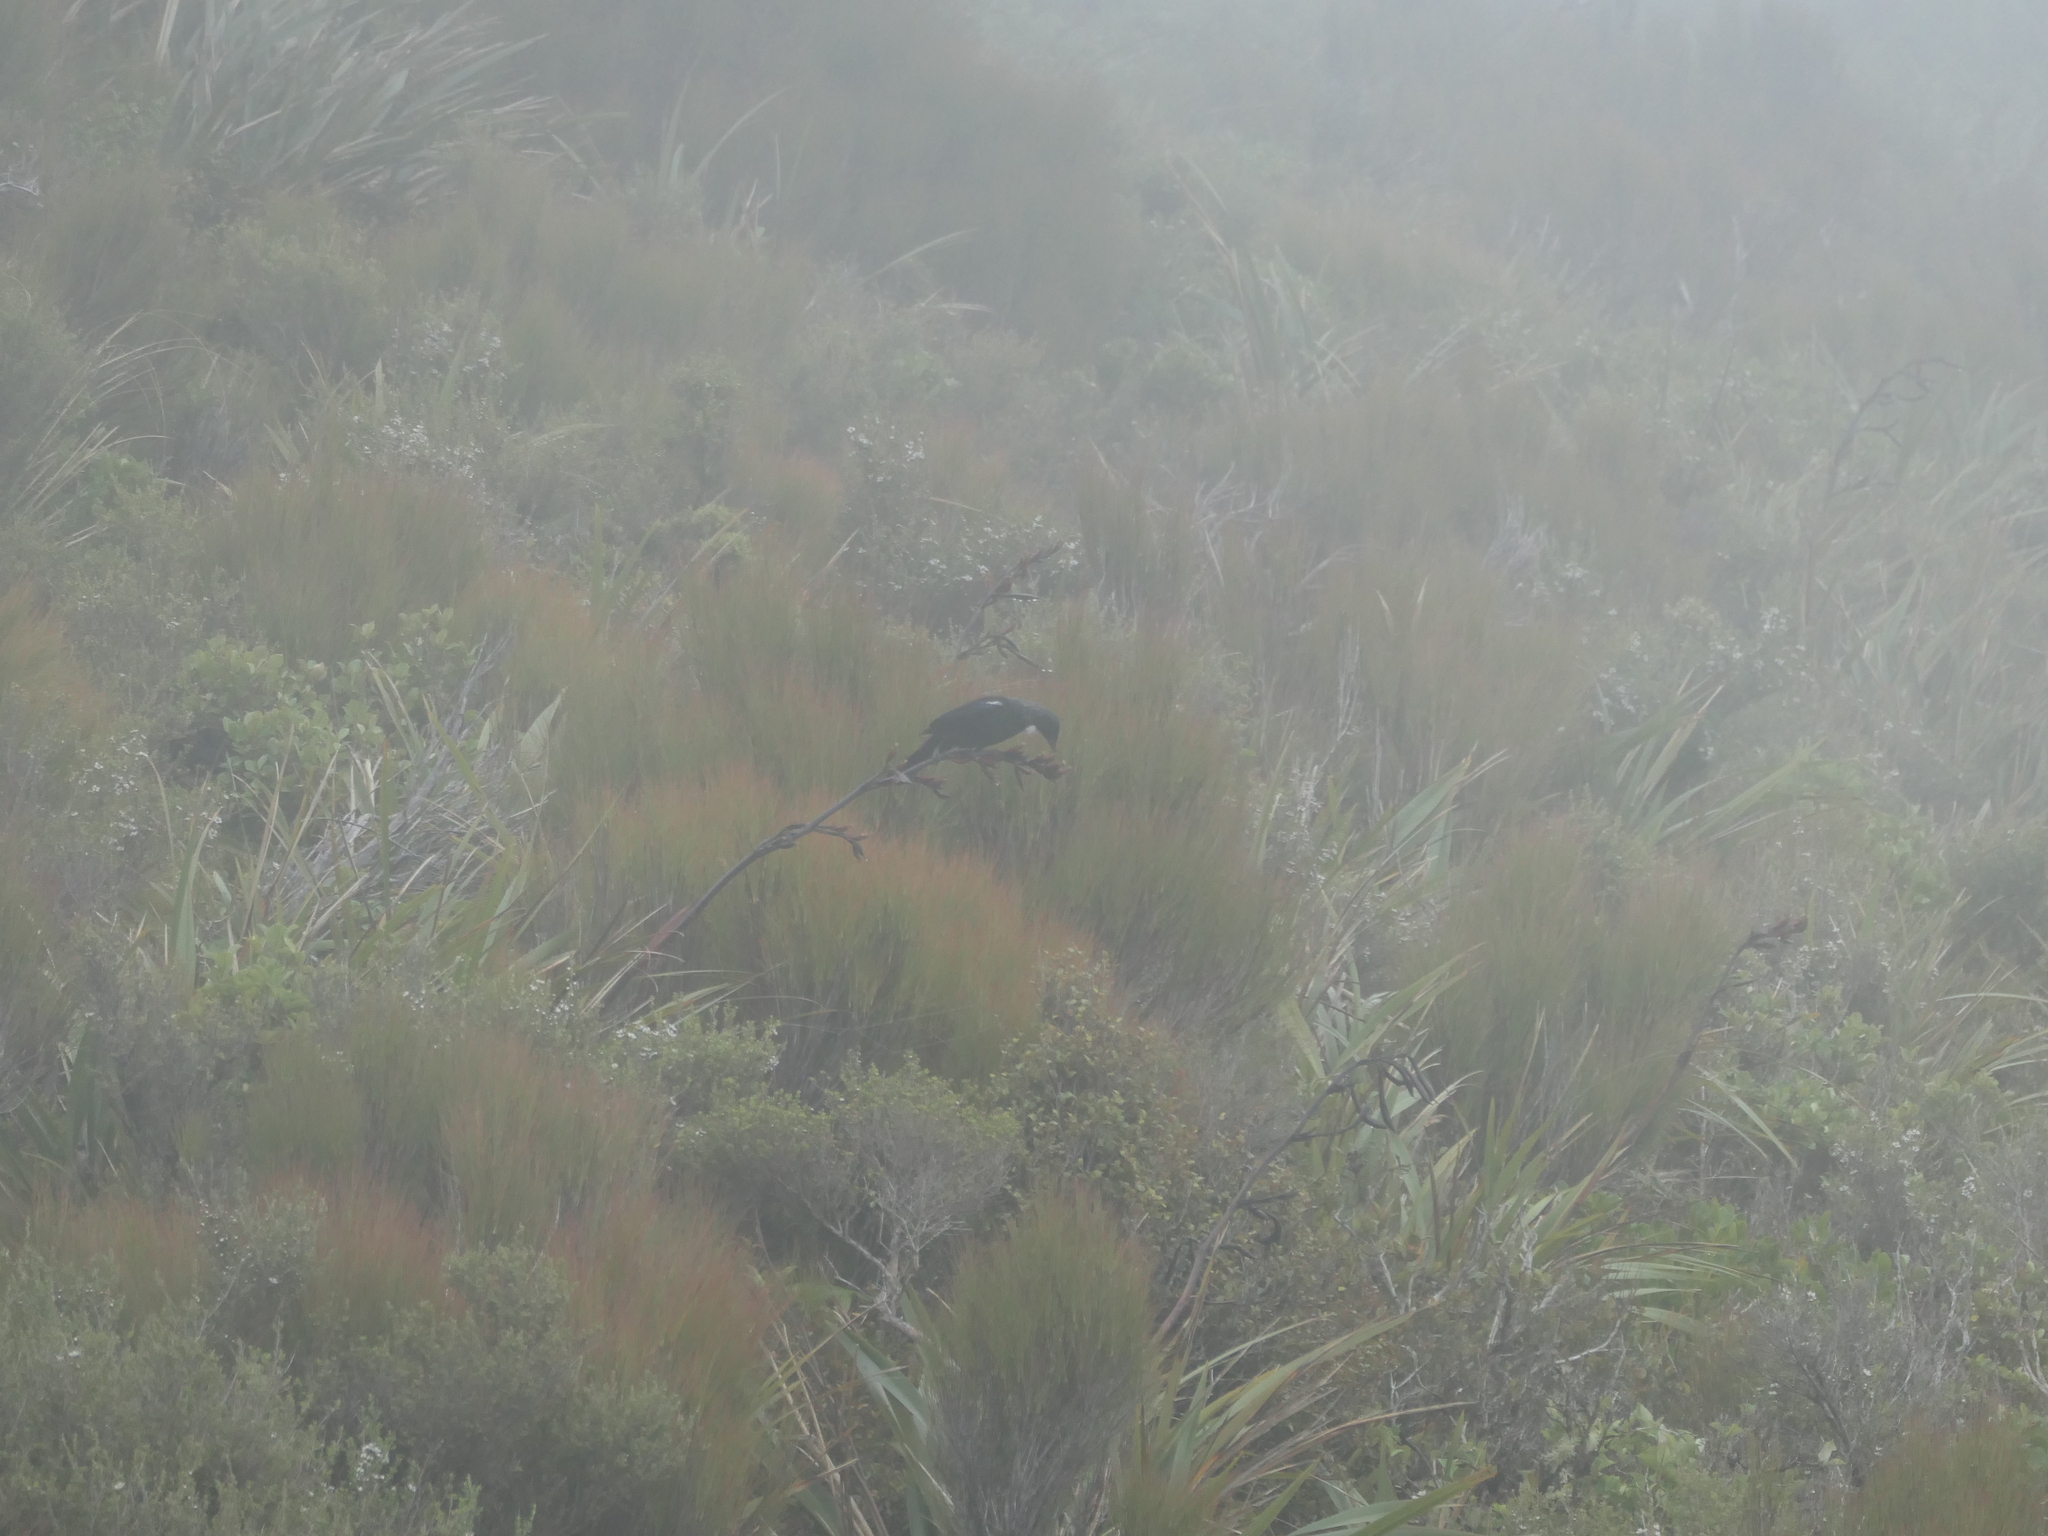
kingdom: Animalia
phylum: Chordata
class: Aves
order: Passeriformes
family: Meliphagidae
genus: Prosthemadera
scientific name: Prosthemadera novaeseelandiae
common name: Tui
